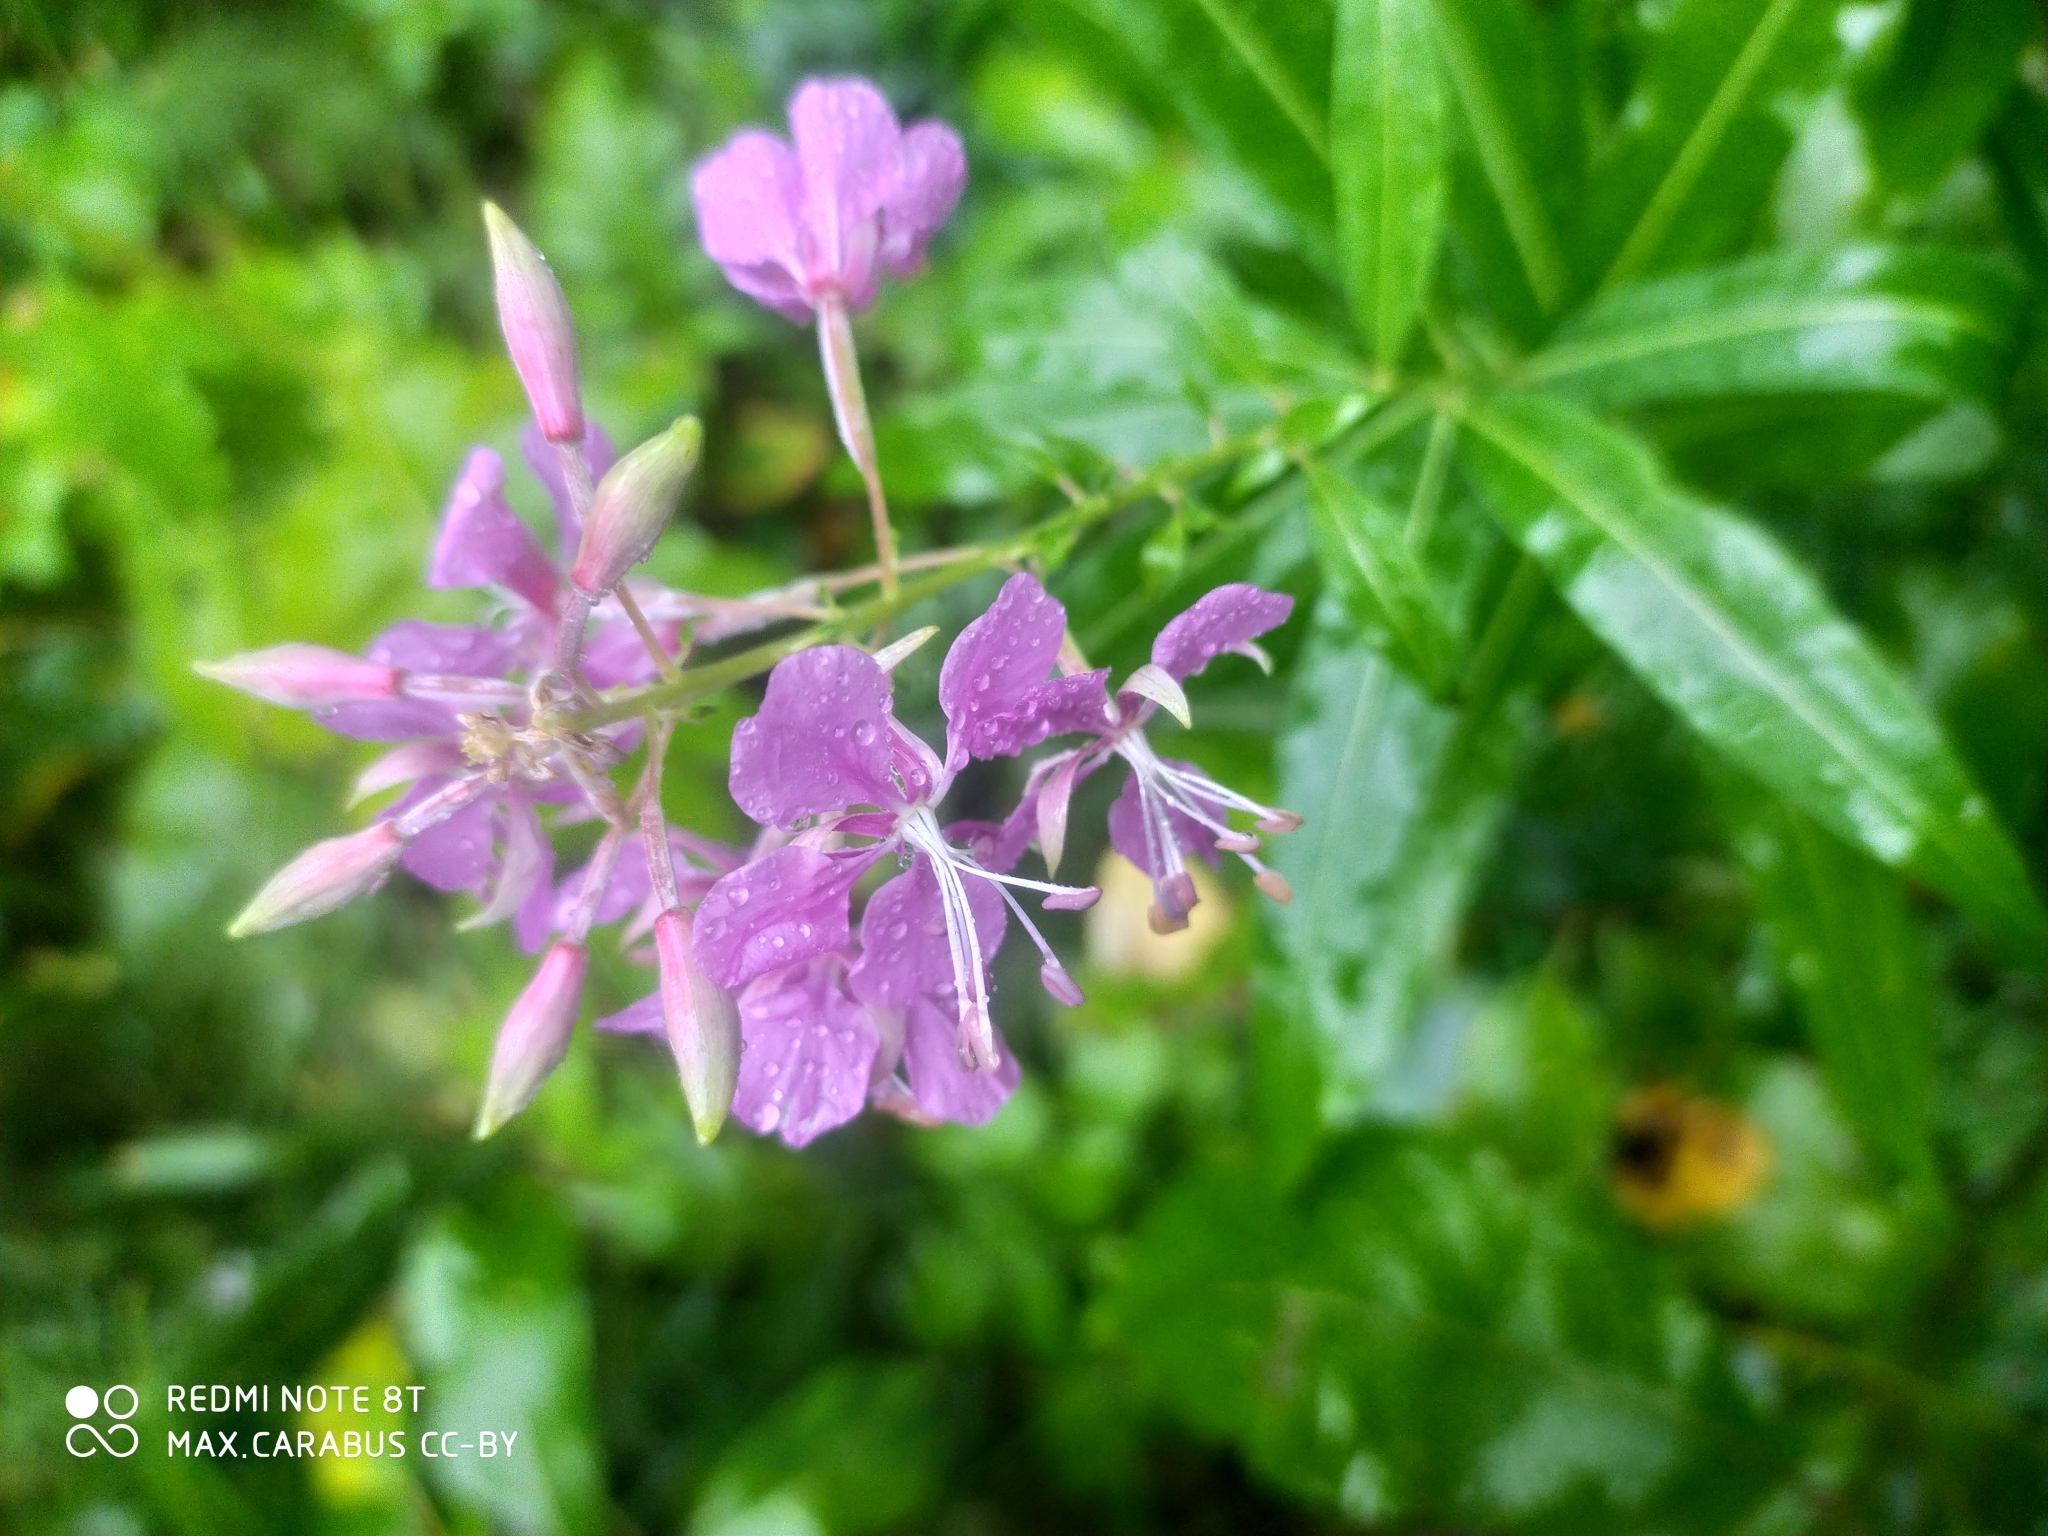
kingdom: Plantae
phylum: Tracheophyta
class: Magnoliopsida
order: Myrtales
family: Onagraceae
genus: Chamaenerion
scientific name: Chamaenerion angustifolium
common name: Fireweed
